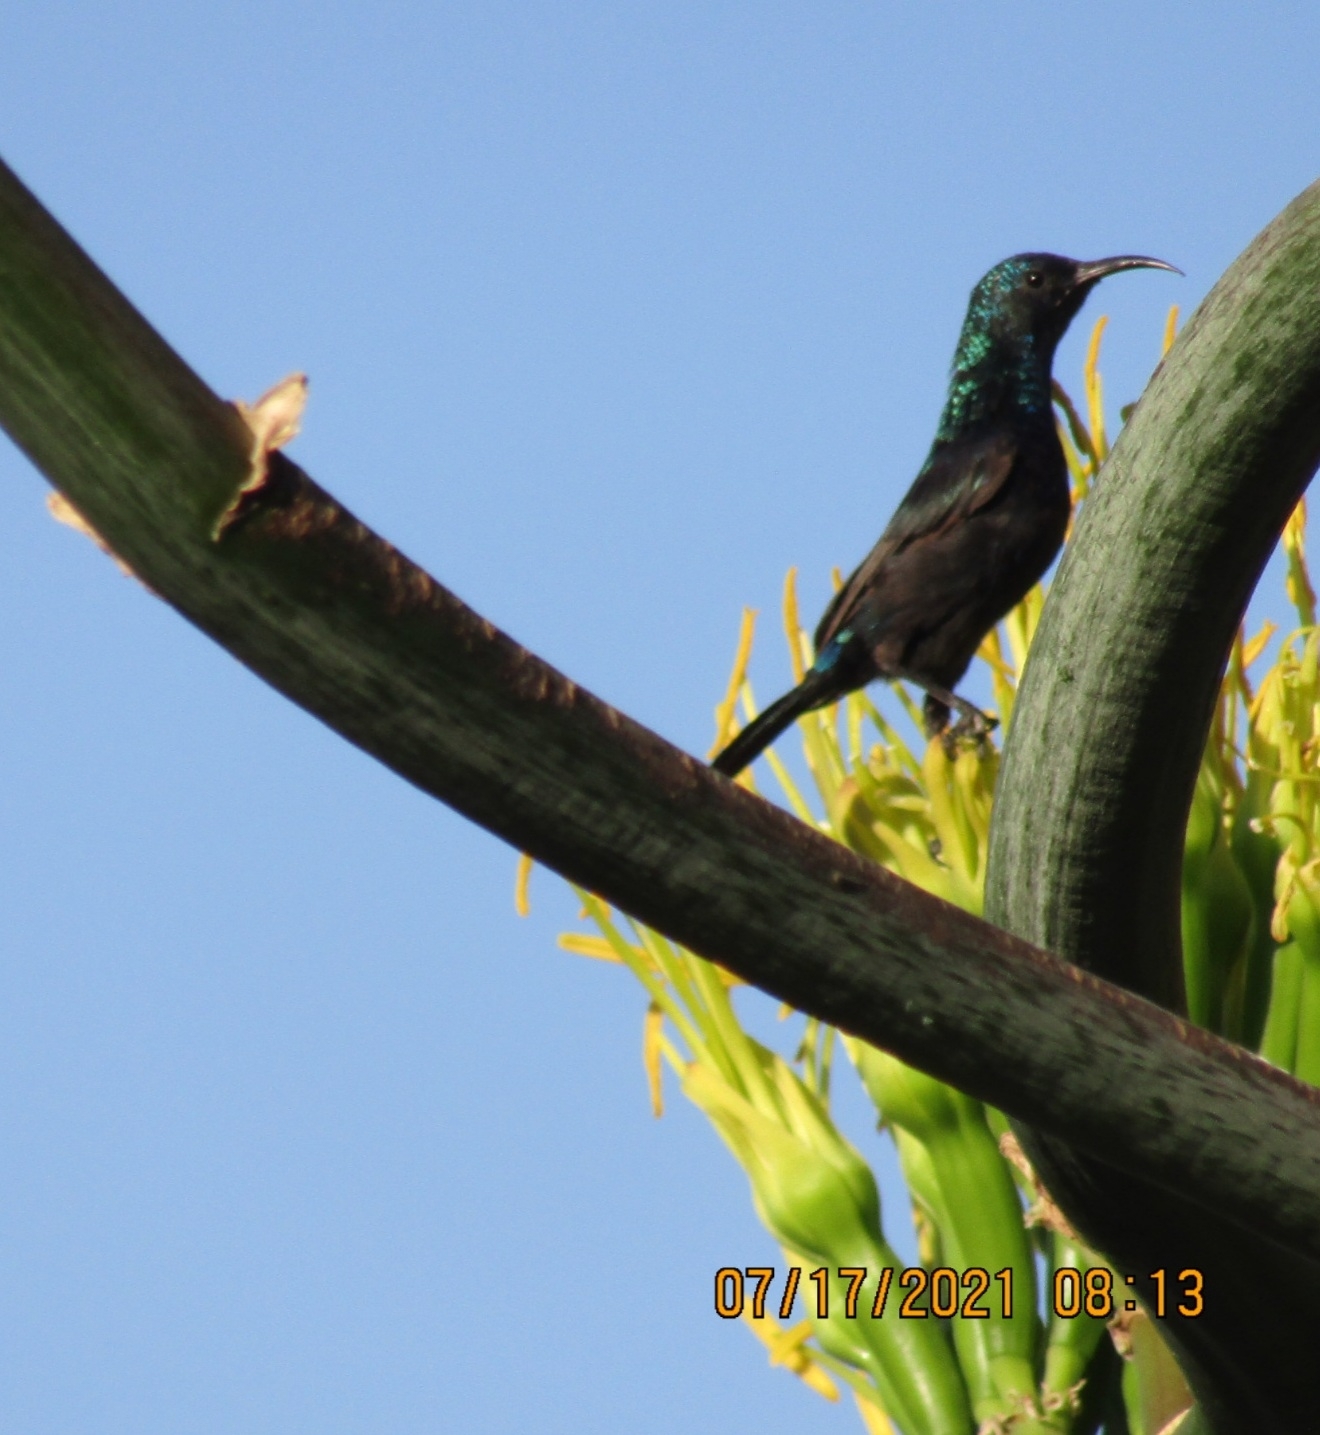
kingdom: Animalia
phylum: Chordata
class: Aves
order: Passeriformes
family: Nectariniidae
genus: Cinnyris
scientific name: Cinnyris osea
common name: Palestine sunbird
